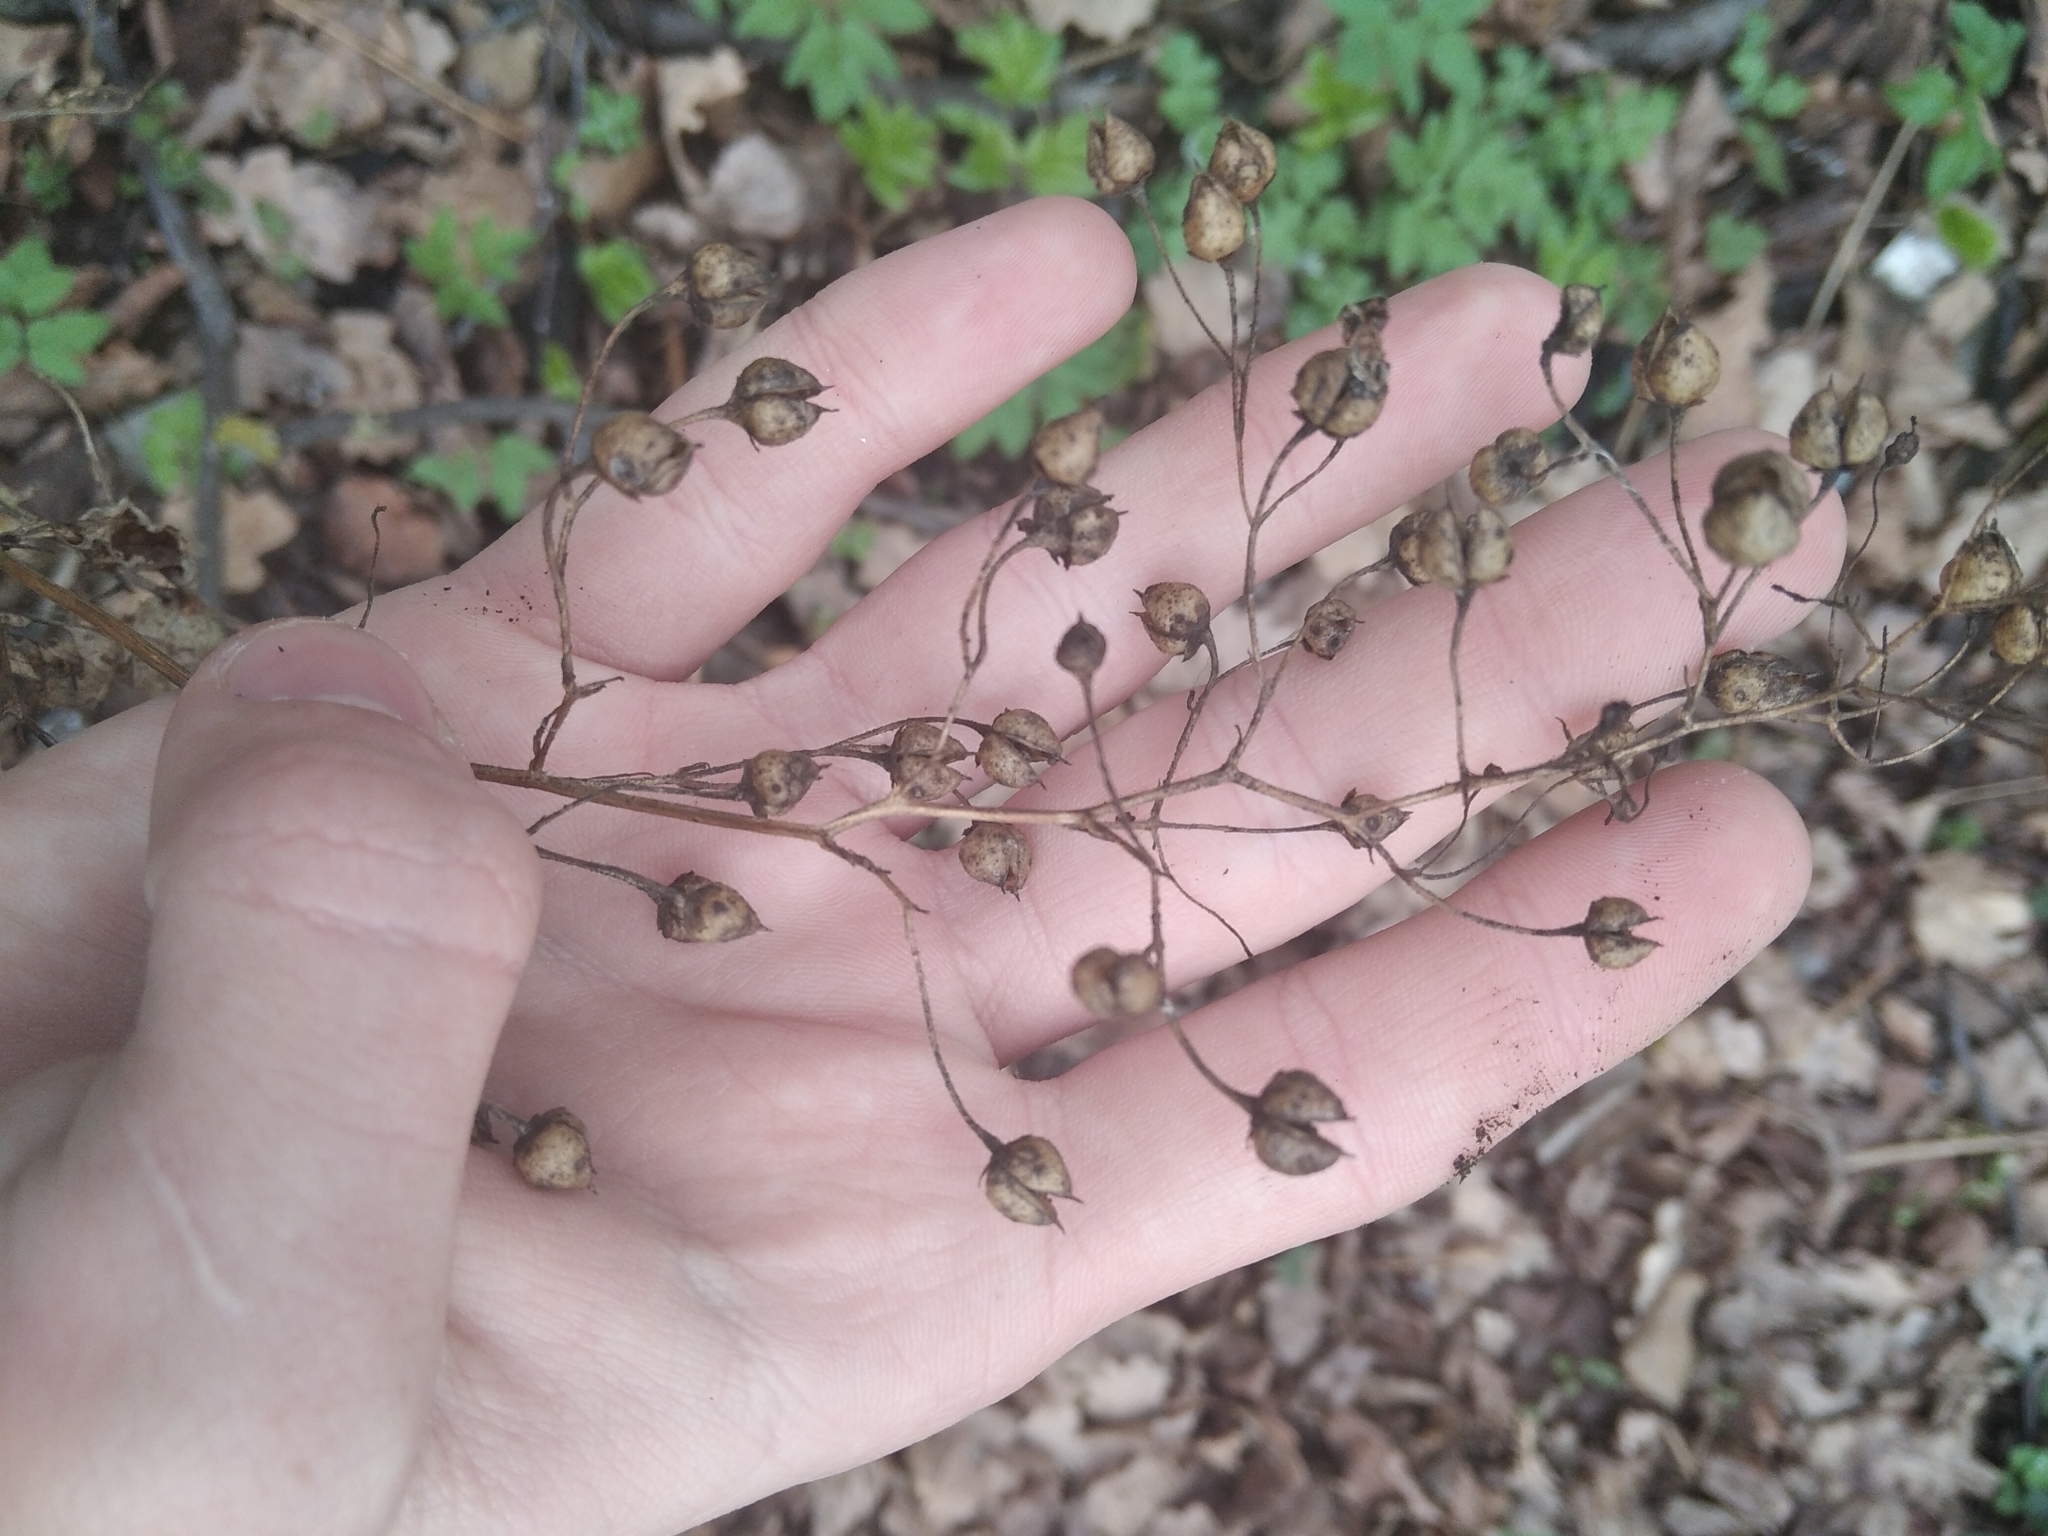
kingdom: Plantae
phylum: Tracheophyta
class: Magnoliopsida
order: Lamiales
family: Scrophulariaceae
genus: Scrophularia
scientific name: Scrophularia nodosa
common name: Common figwort
